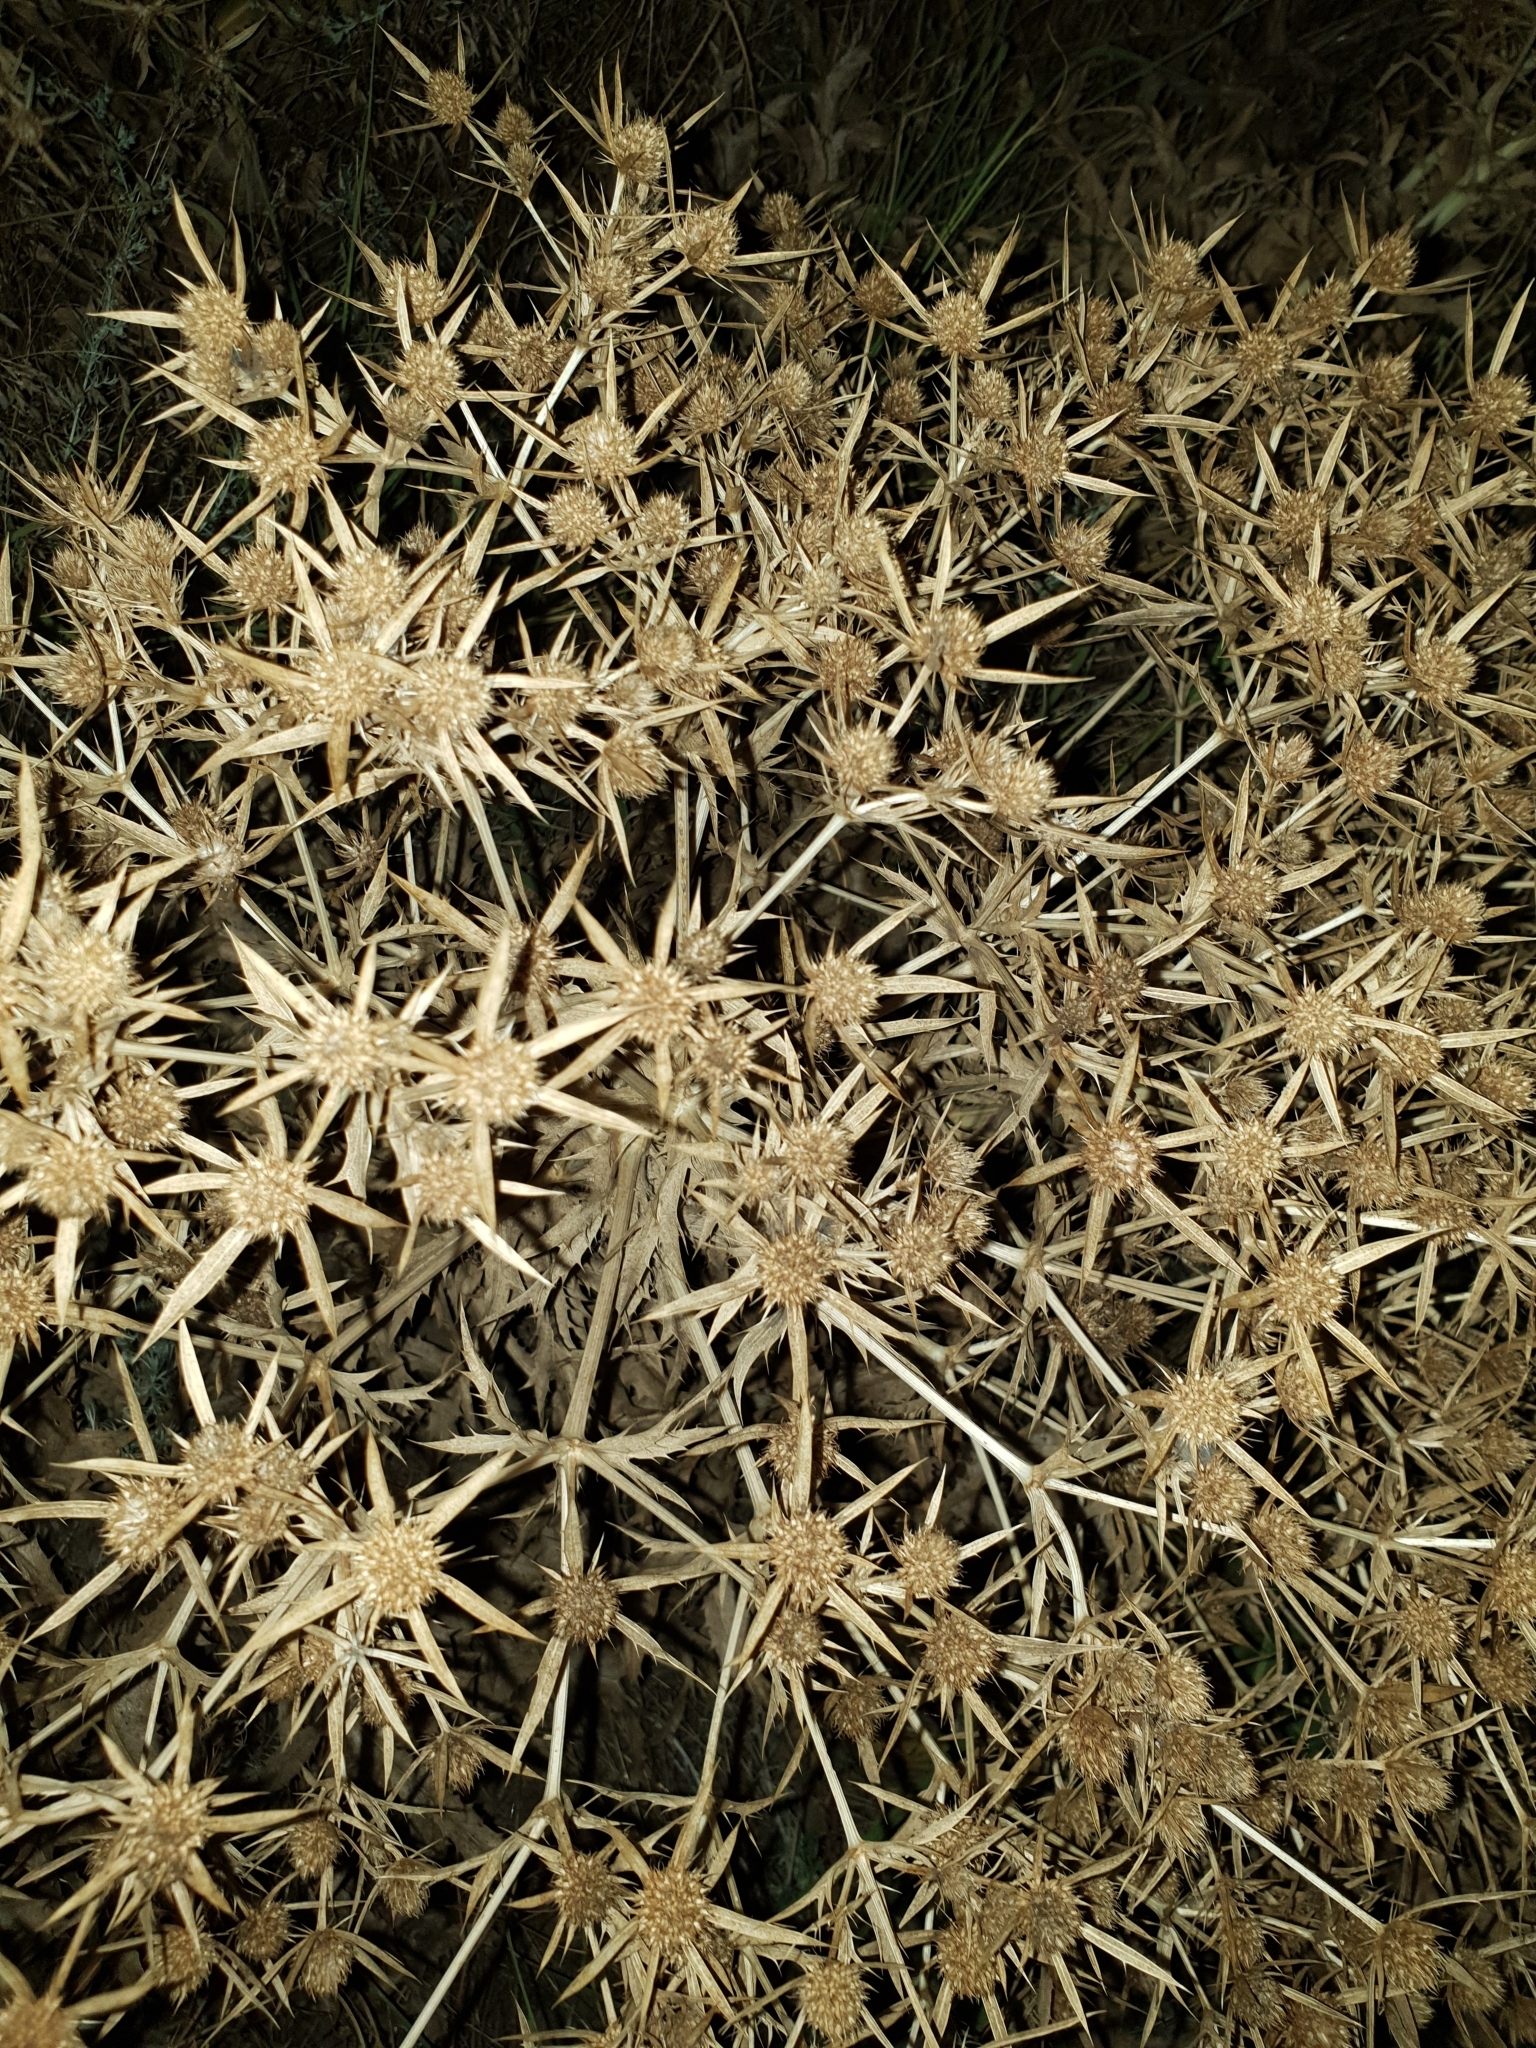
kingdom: Plantae
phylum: Tracheophyta
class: Magnoliopsida
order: Apiales
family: Apiaceae
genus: Eryngium
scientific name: Eryngium campestre
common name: Field eryngo
